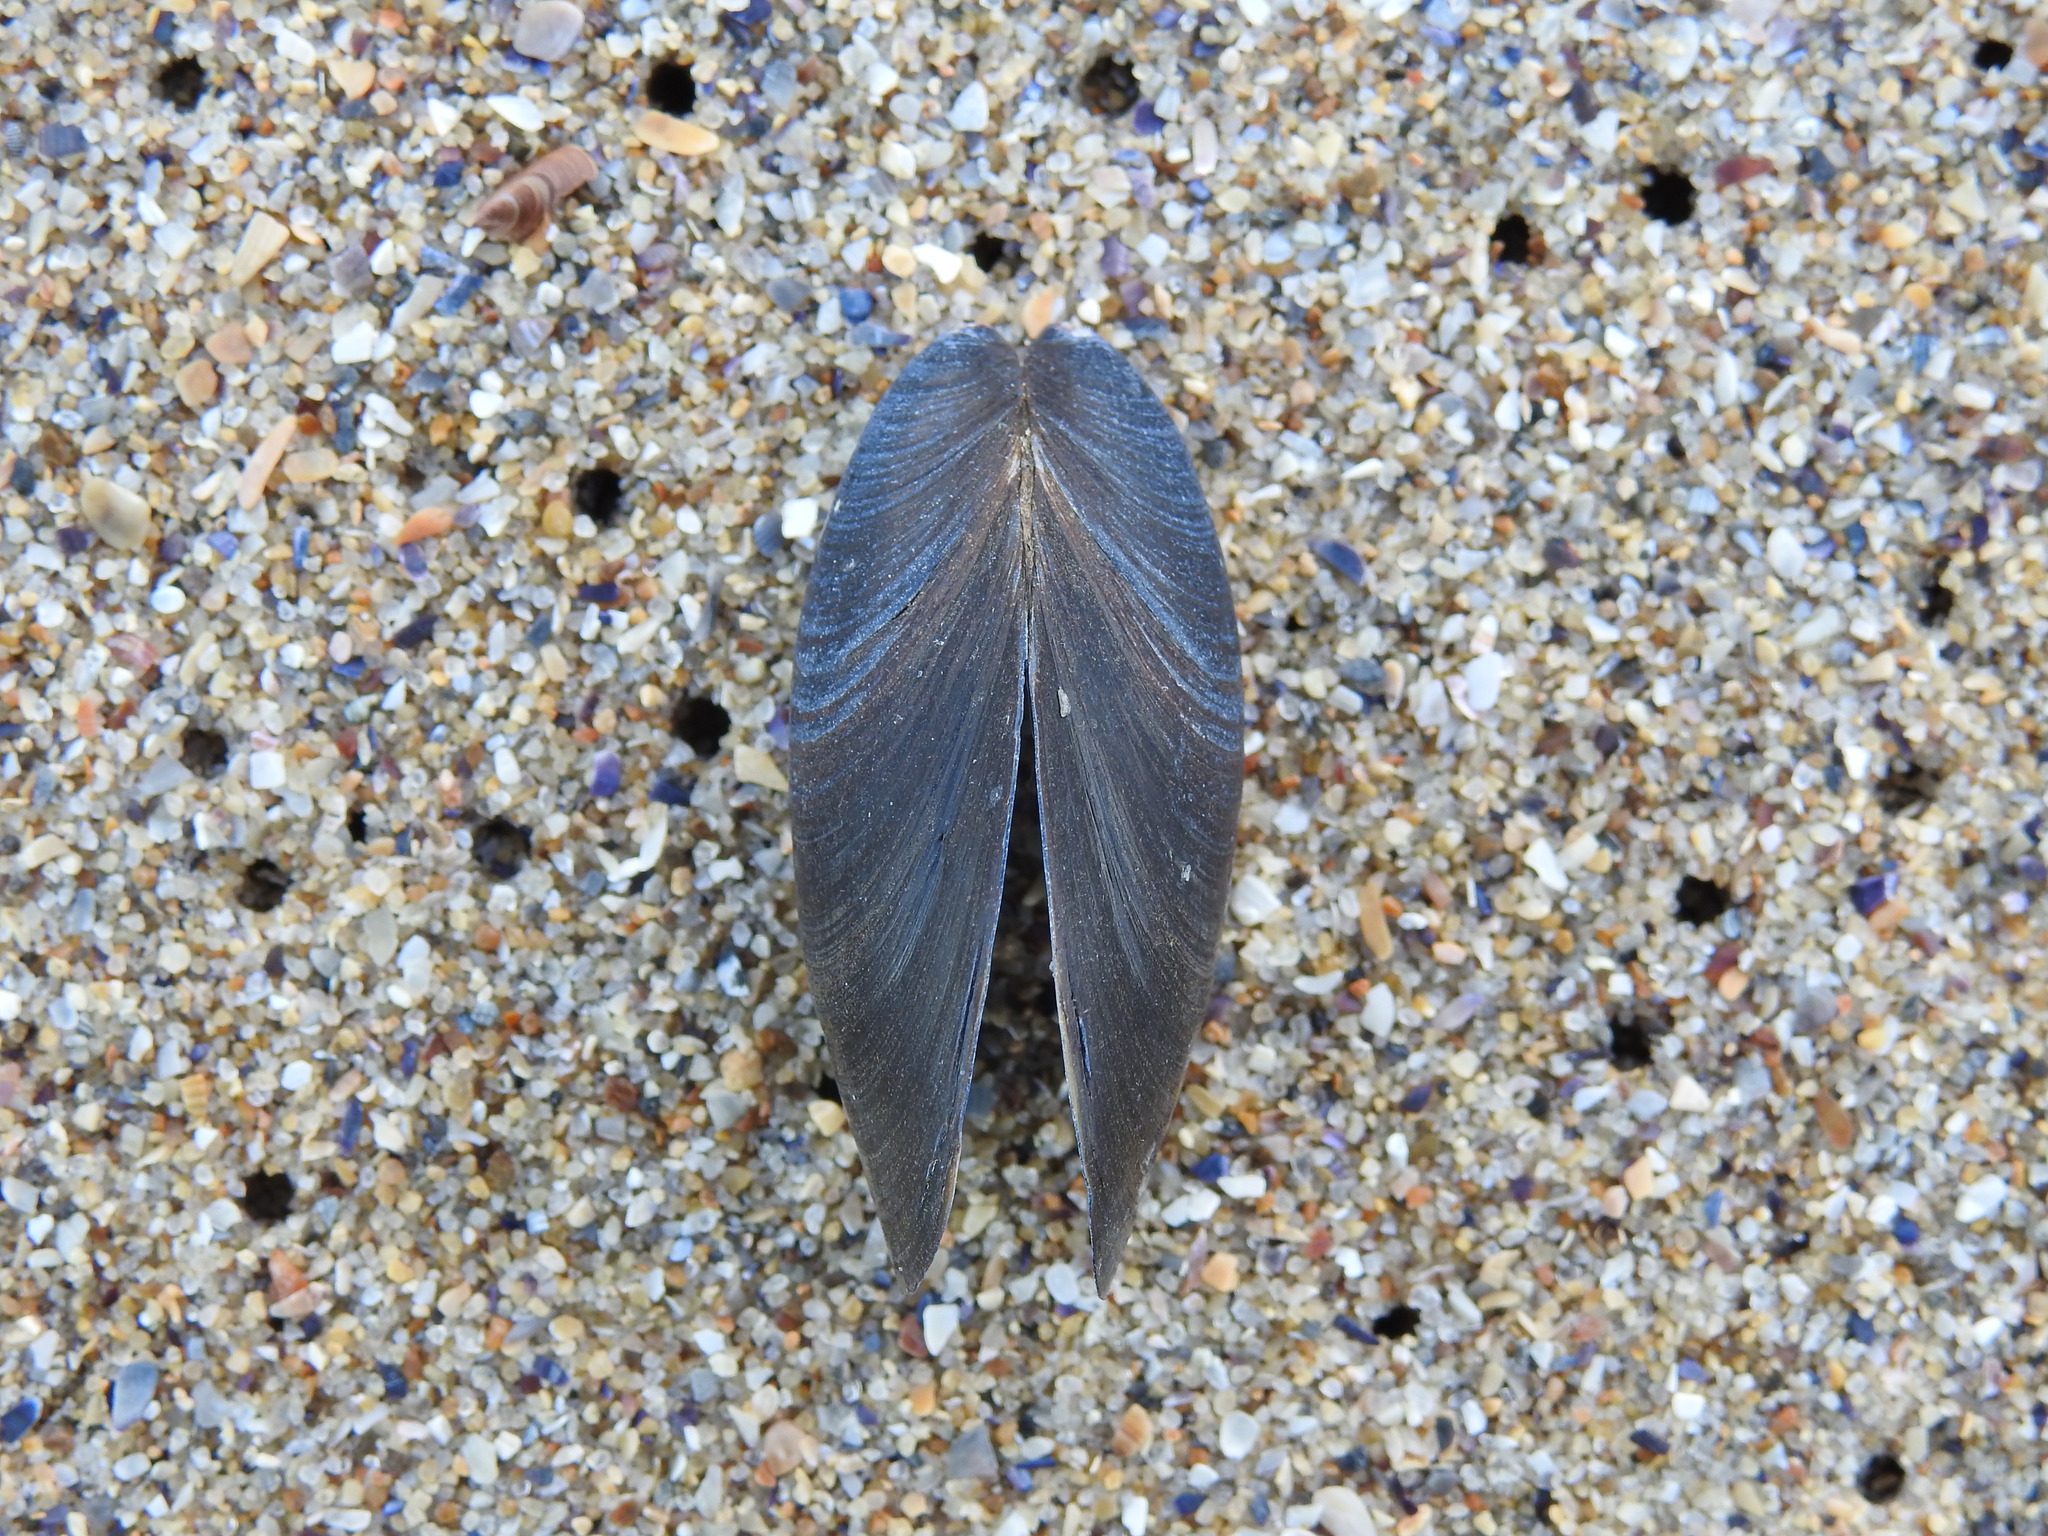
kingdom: Animalia
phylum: Mollusca
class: Bivalvia
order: Mytilida
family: Mytilidae
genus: Mytilus
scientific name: Mytilus galloprovincialis
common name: Mediterranean mussel
